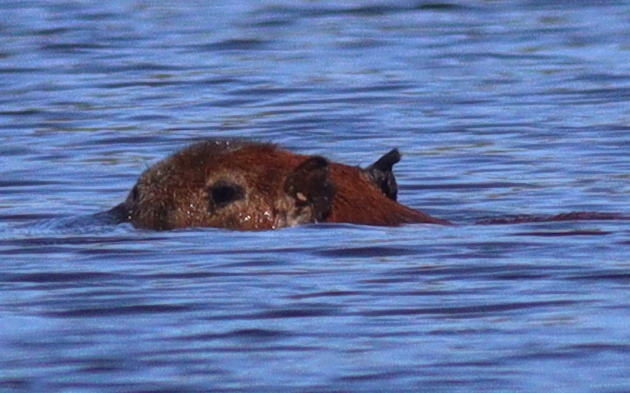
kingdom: Animalia
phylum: Chordata
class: Mammalia
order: Rodentia
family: Caviidae
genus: Hydrochoerus
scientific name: Hydrochoerus hydrochaeris
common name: Capybara
